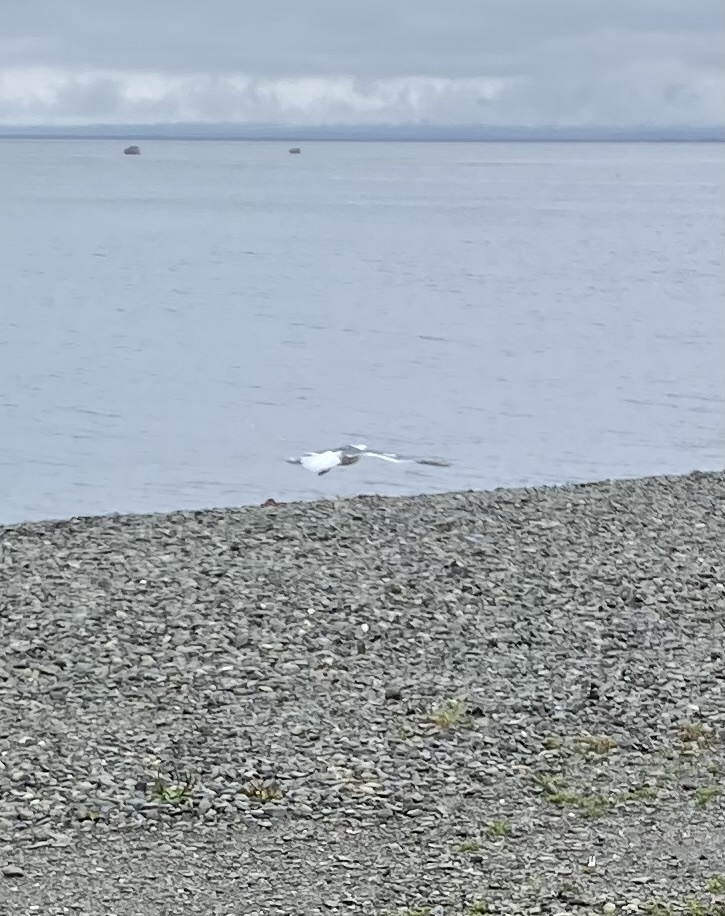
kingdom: Animalia
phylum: Chordata
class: Aves
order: Charadriiformes
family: Laridae
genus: Larus
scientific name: Larus schistisagus
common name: Slaty-backed gull
